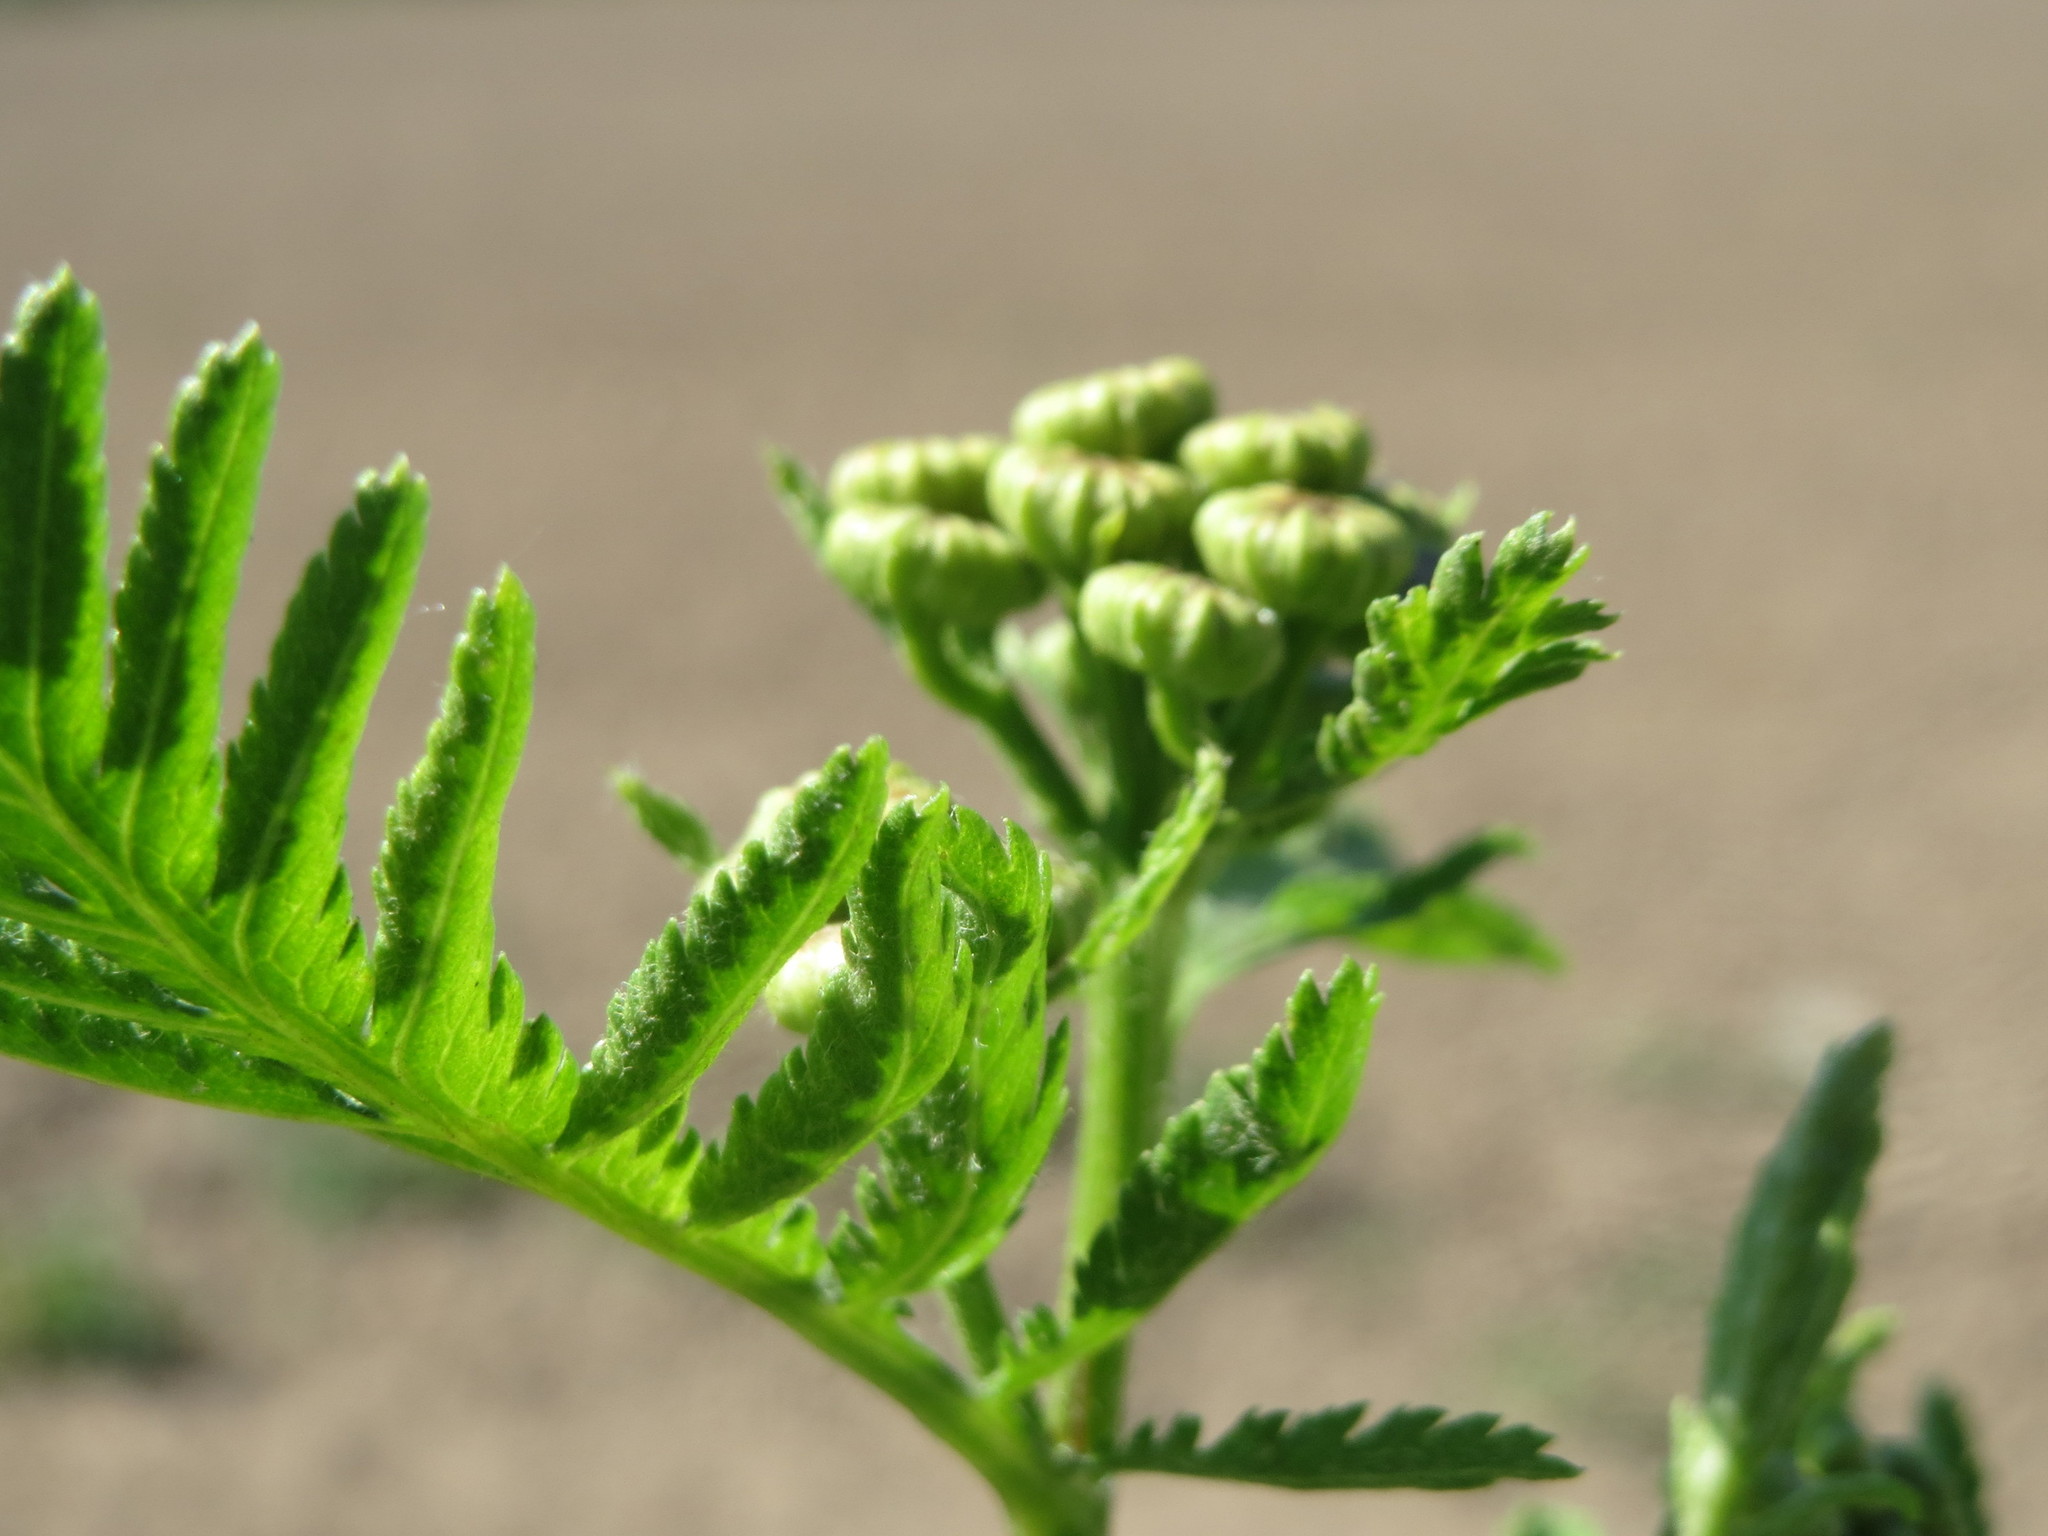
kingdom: Plantae
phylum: Tracheophyta
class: Magnoliopsida
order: Asterales
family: Asteraceae
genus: Tanacetum
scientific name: Tanacetum vulgare
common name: Common tansy
